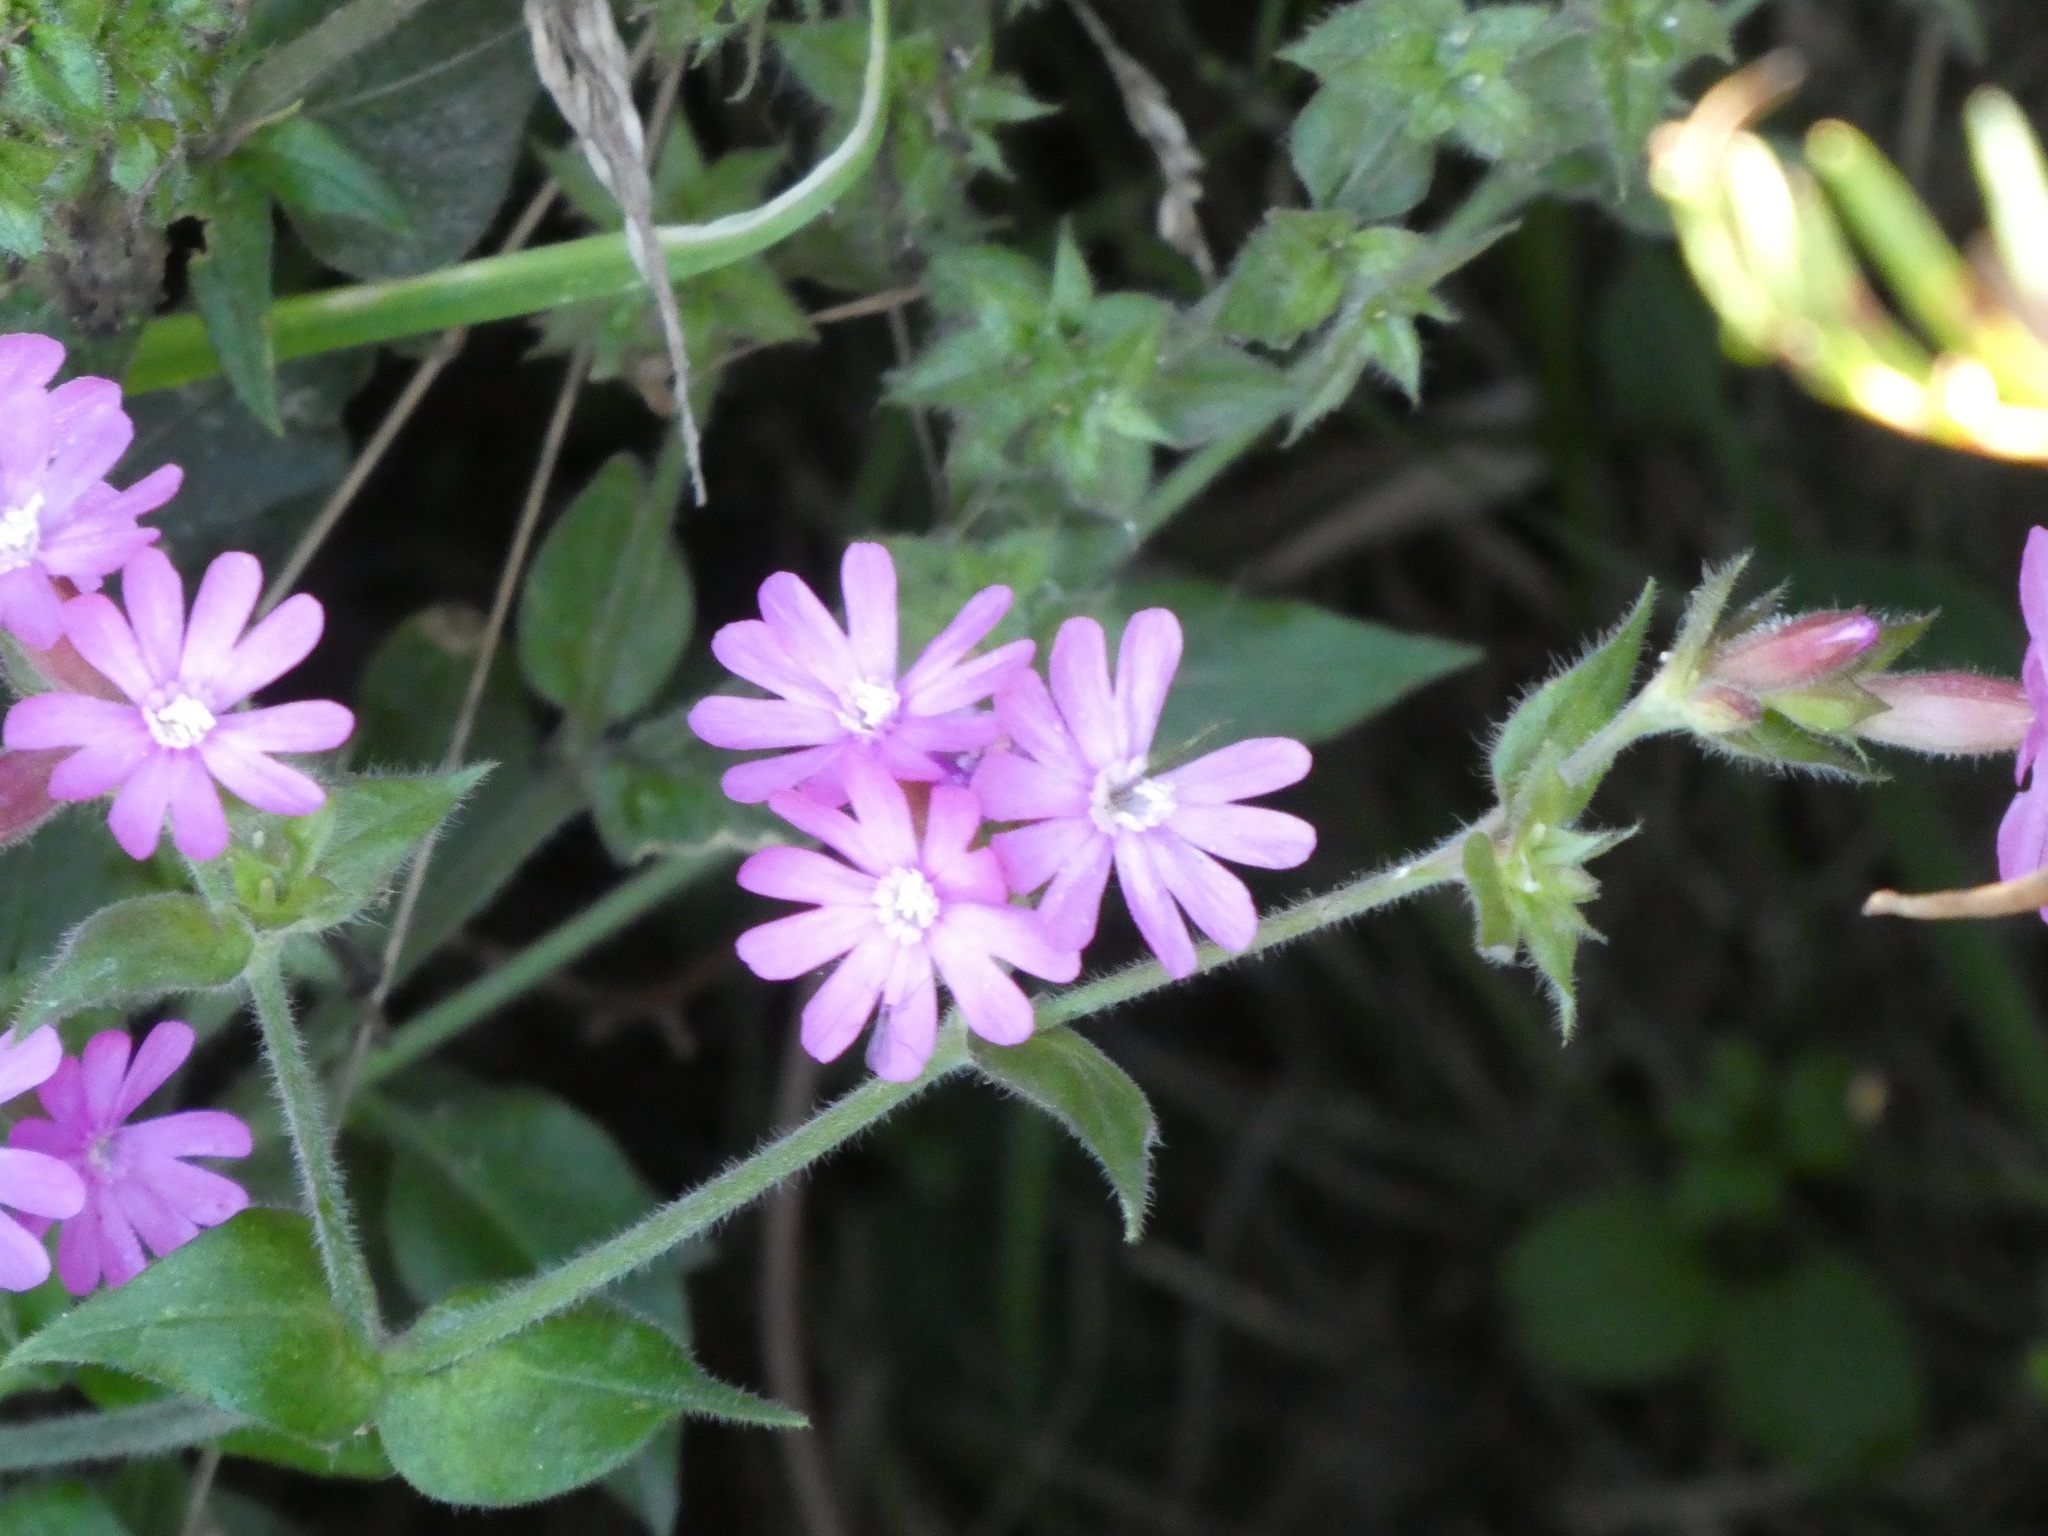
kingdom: Plantae
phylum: Tracheophyta
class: Magnoliopsida
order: Caryophyllales
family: Caryophyllaceae
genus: Silene
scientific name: Silene dioica
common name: Red campion
